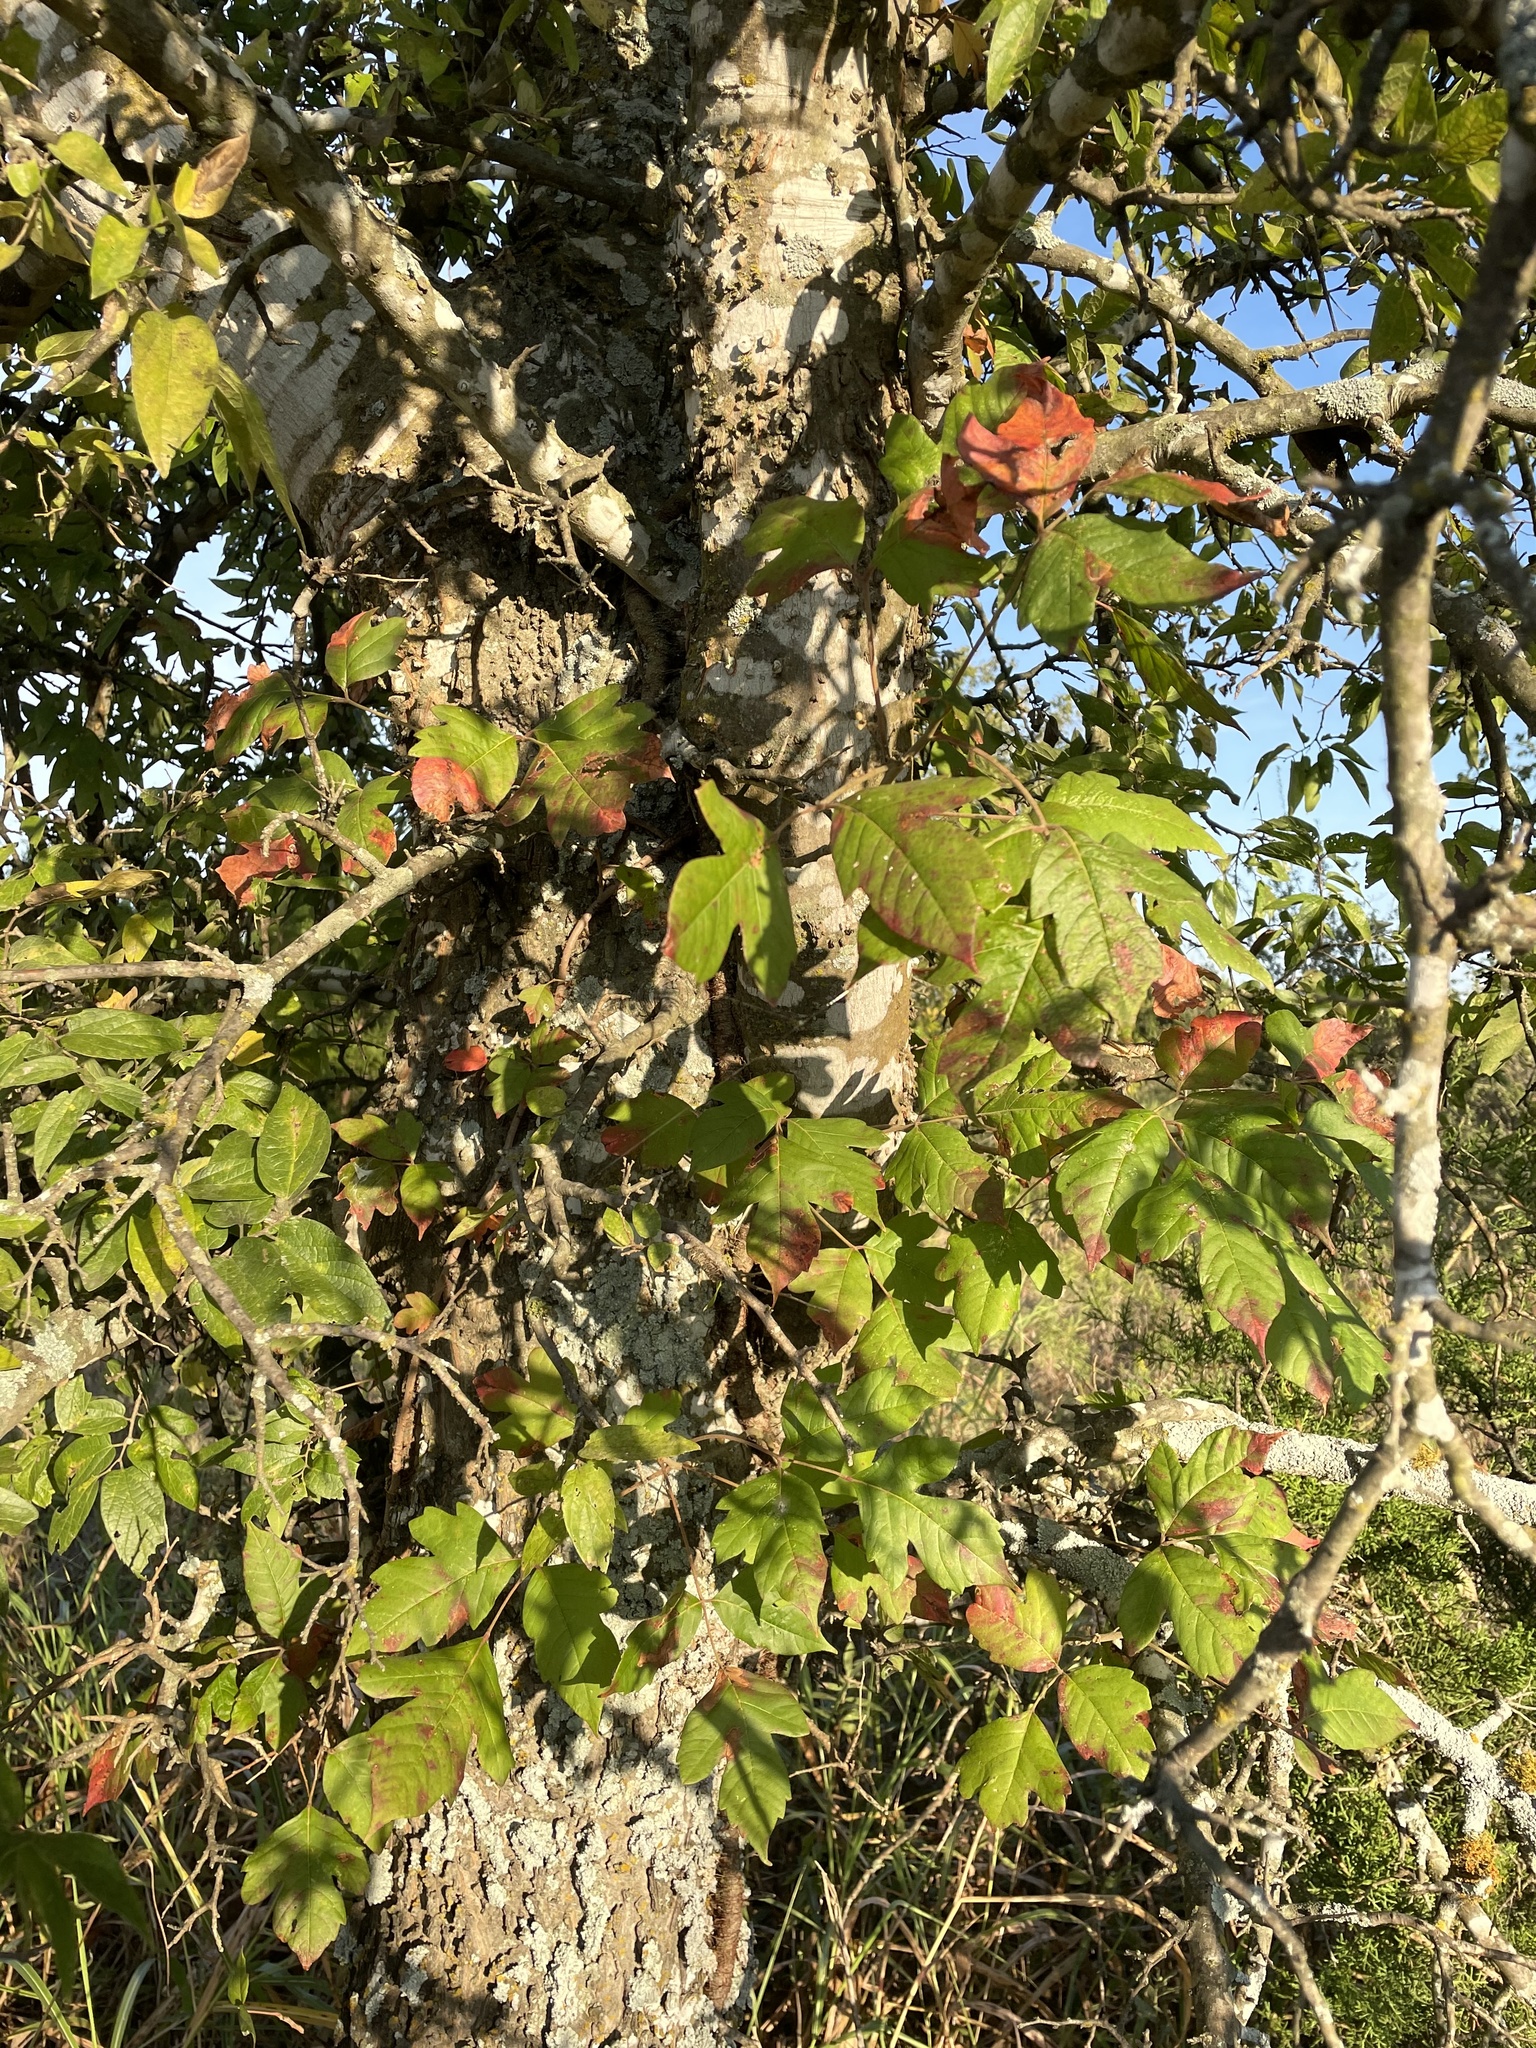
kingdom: Plantae
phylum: Tracheophyta
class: Magnoliopsida
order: Sapindales
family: Anacardiaceae
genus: Toxicodendron
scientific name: Toxicodendron radicans
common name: Poison ivy
